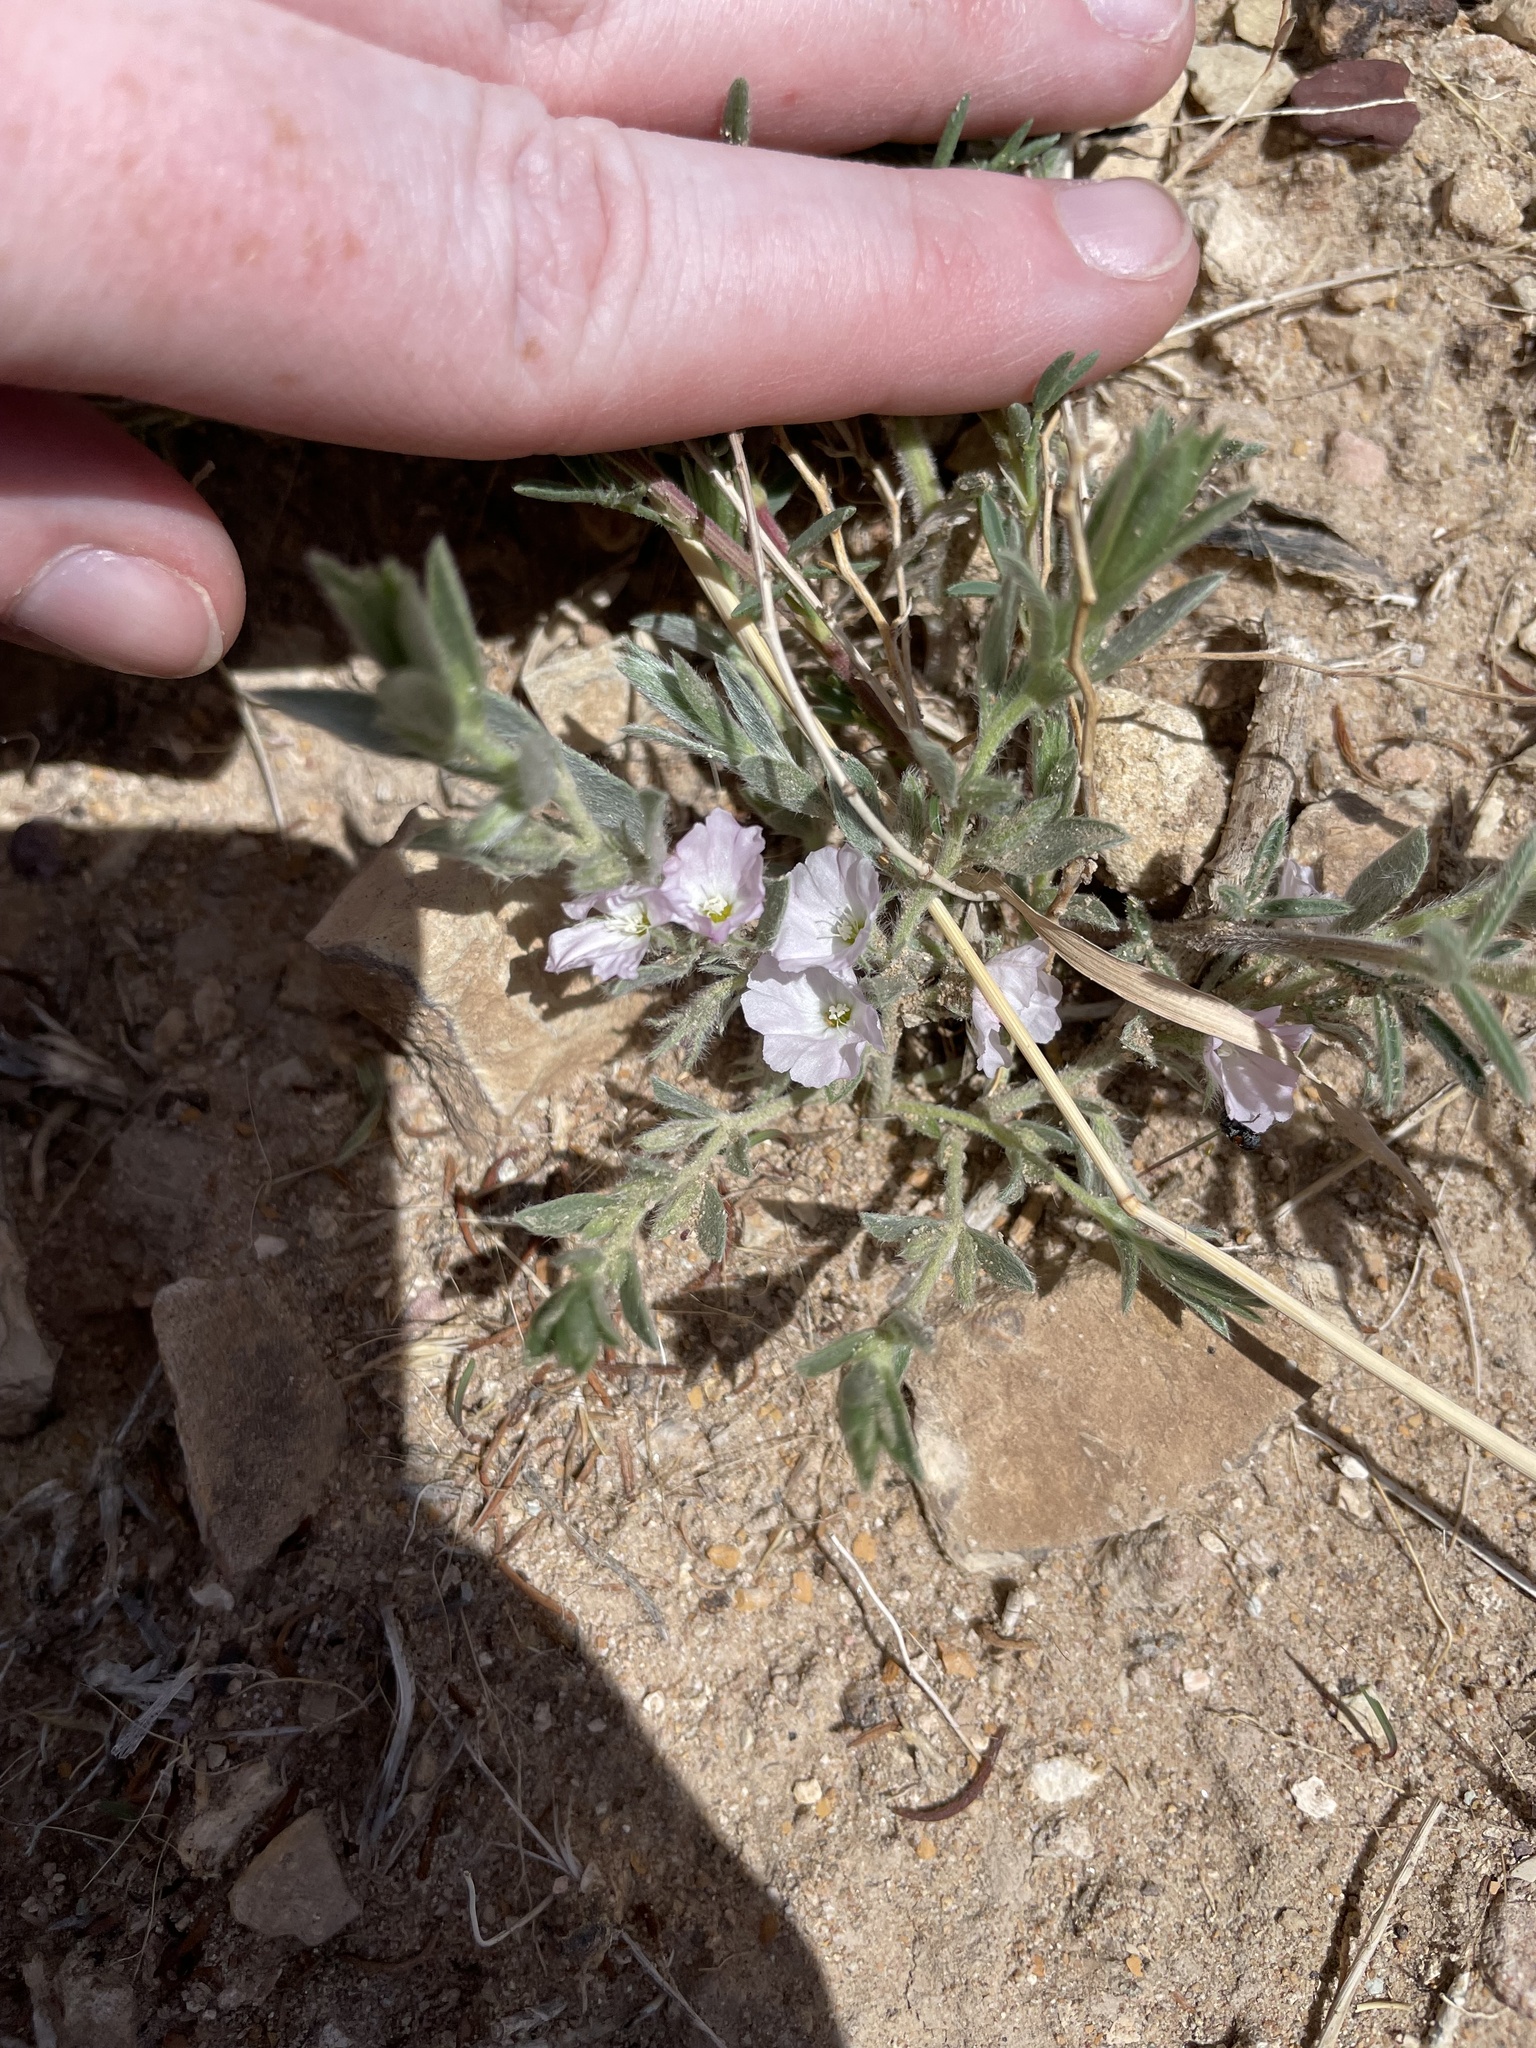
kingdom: Plantae
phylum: Tracheophyta
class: Magnoliopsida
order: Solanales
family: Convolvulaceae
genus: Evolvulus
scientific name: Evolvulus nuttallianus
